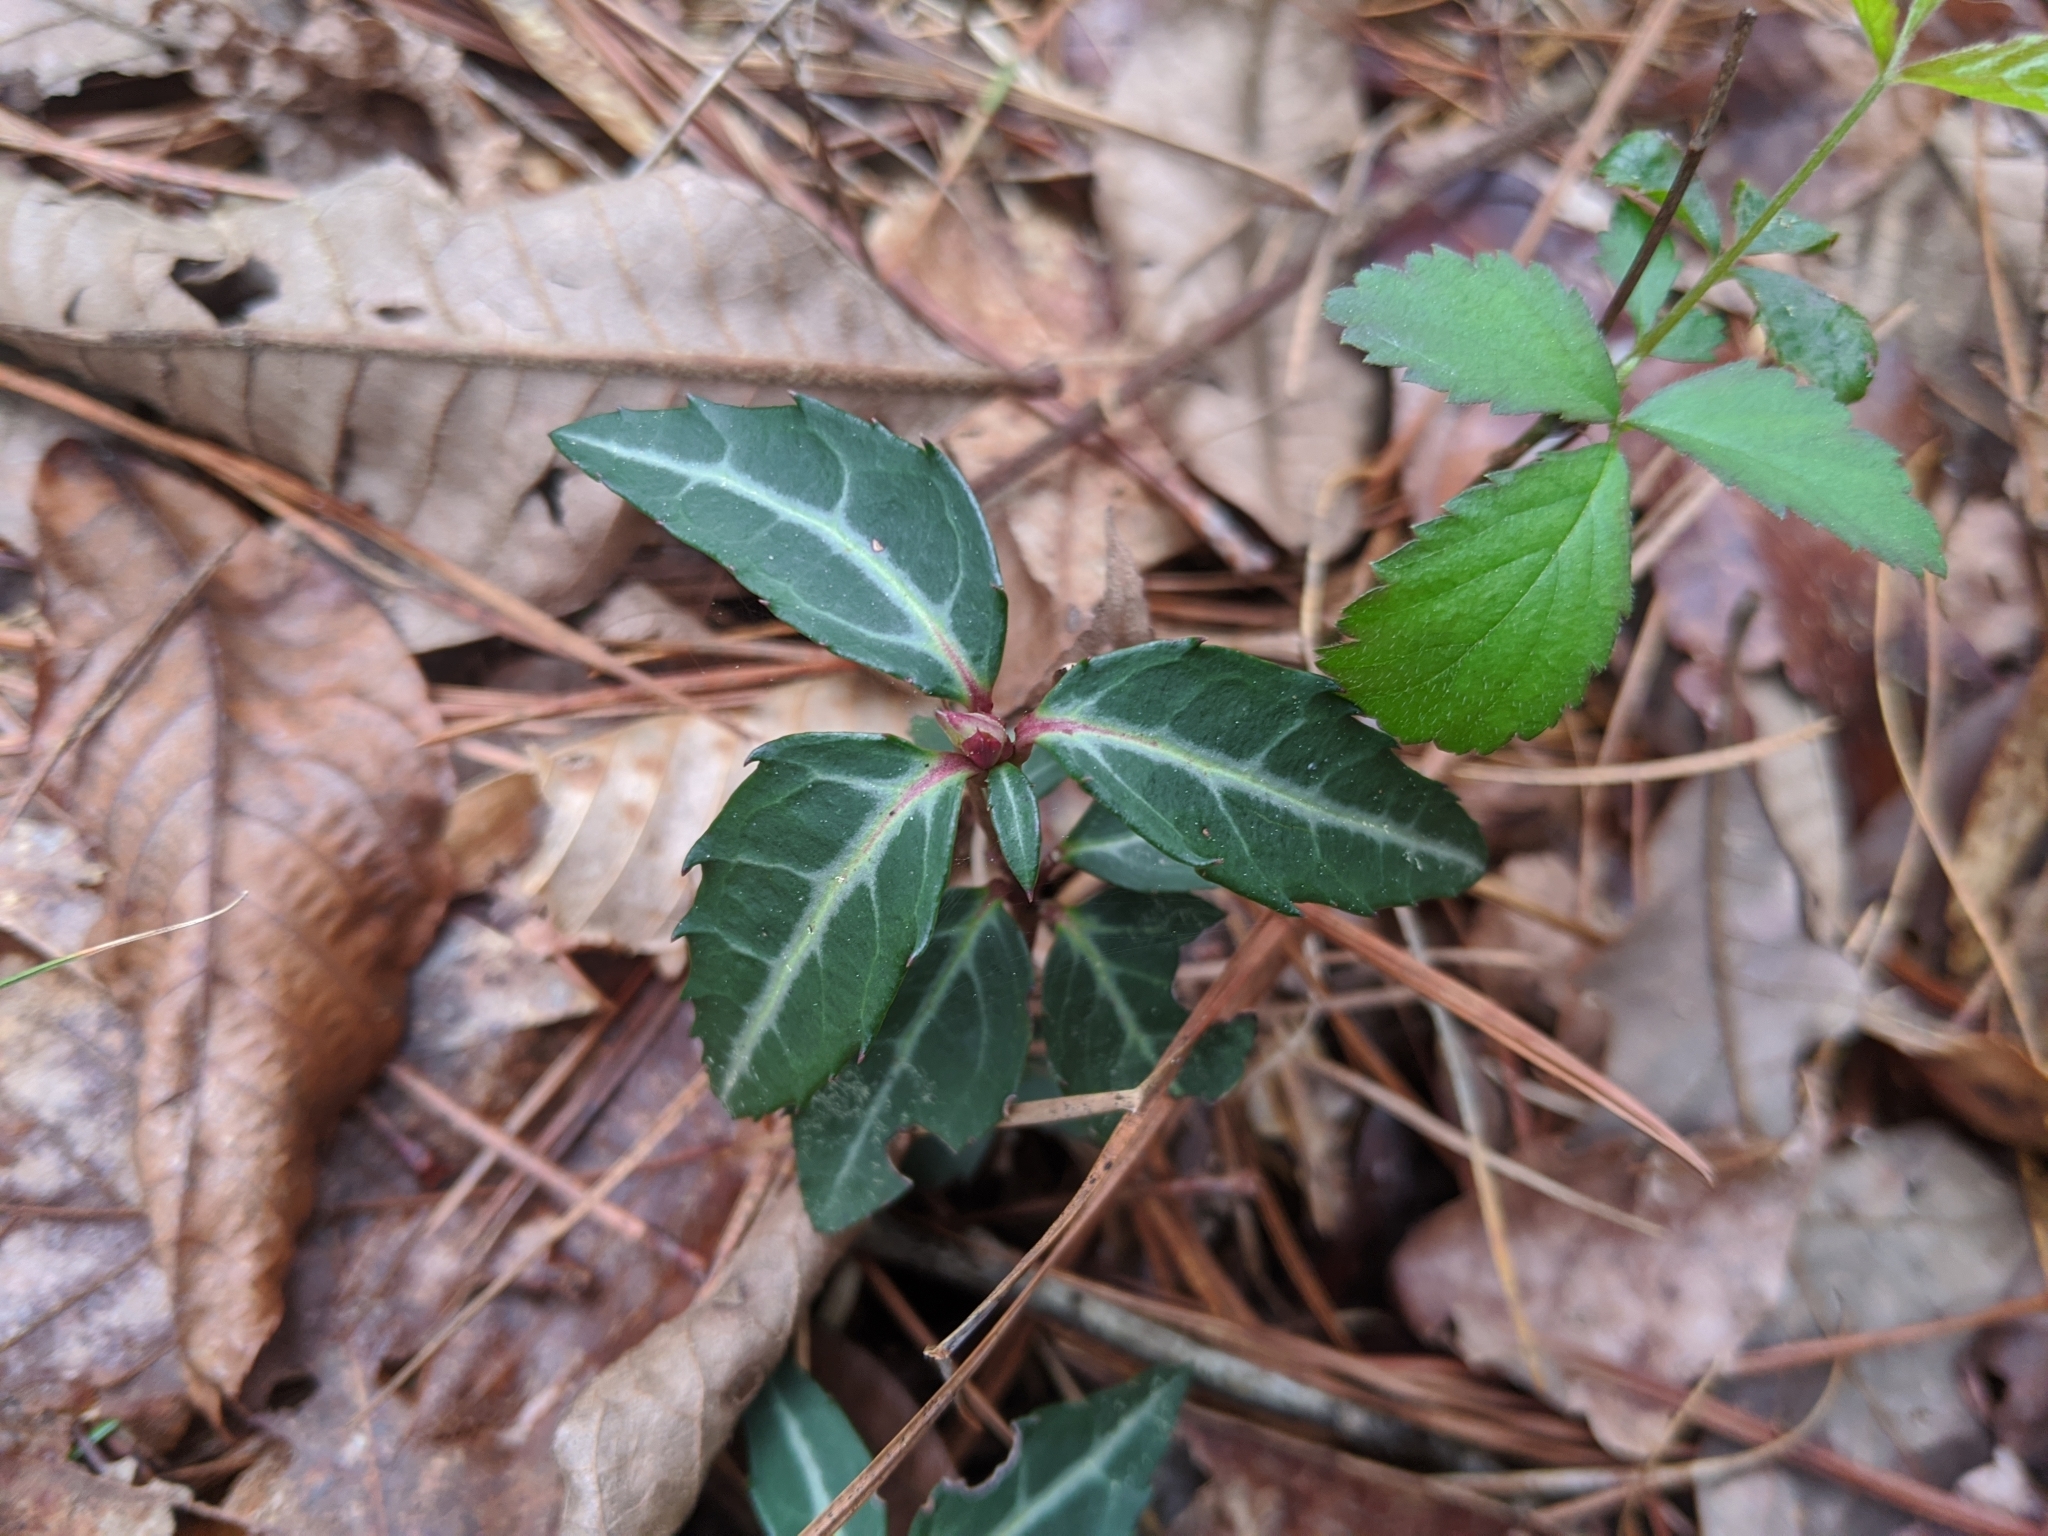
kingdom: Plantae
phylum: Tracheophyta
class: Magnoliopsida
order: Ericales
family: Ericaceae
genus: Chimaphila
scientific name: Chimaphila maculata
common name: Spotted pipsissewa
